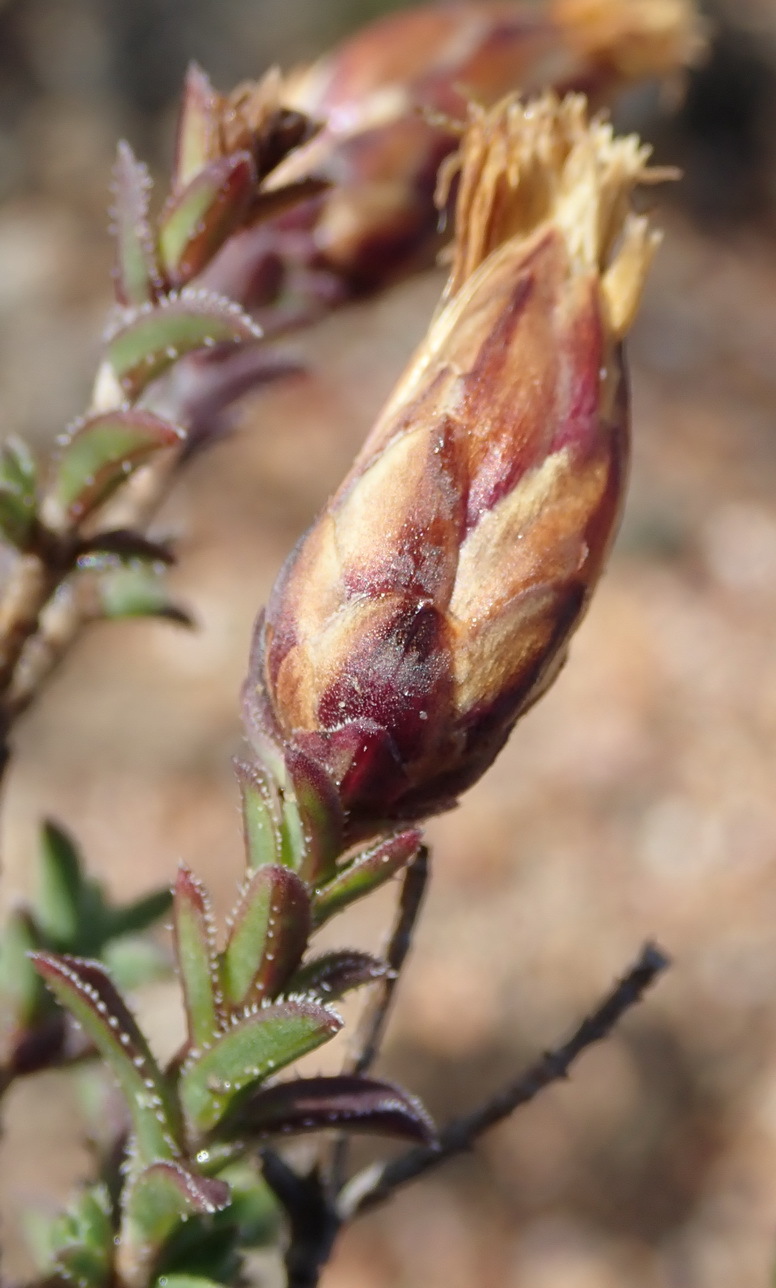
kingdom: Plantae
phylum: Tracheophyta
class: Magnoliopsida
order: Asterales
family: Asteraceae
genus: Pteronia
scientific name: Pteronia staehelinoides
